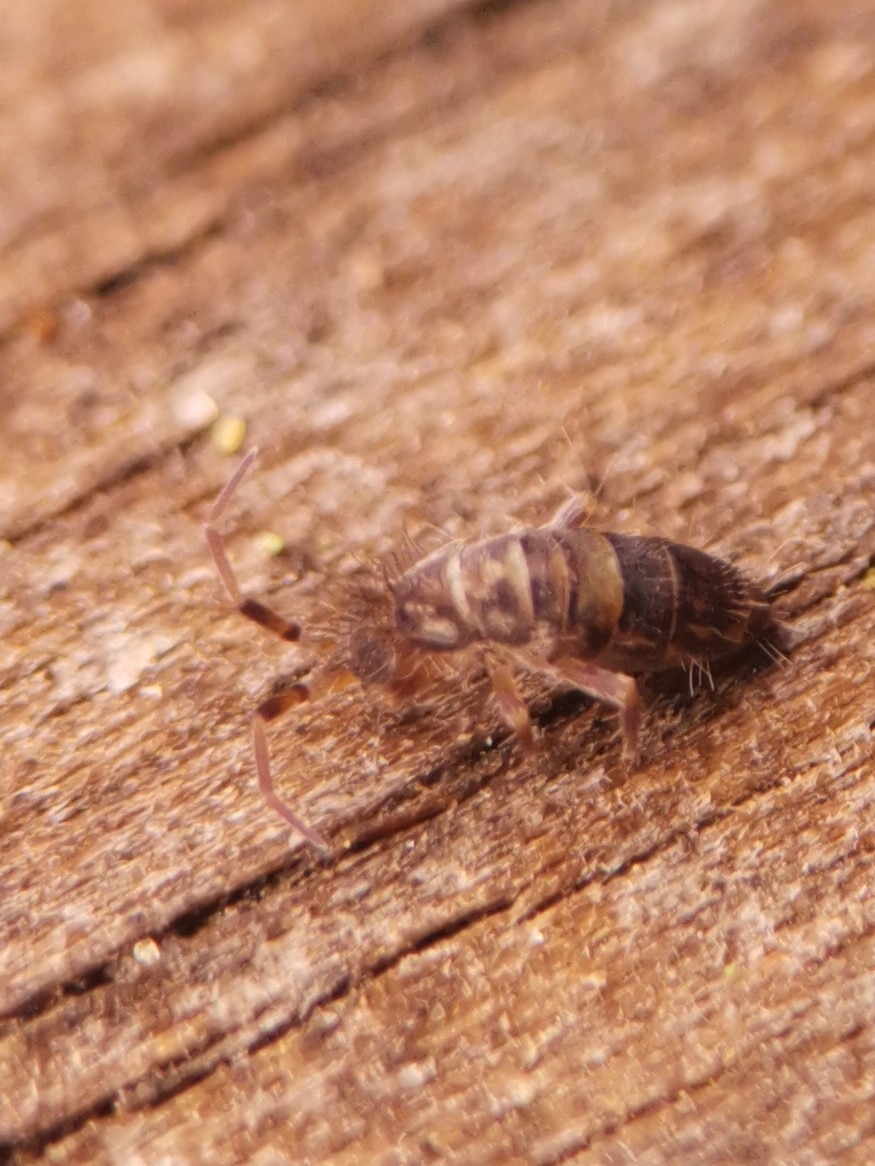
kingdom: Animalia
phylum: Arthropoda
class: Collembola
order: Entomobryomorpha
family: Orchesellidae
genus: Orchesella
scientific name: Orchesella cincta
